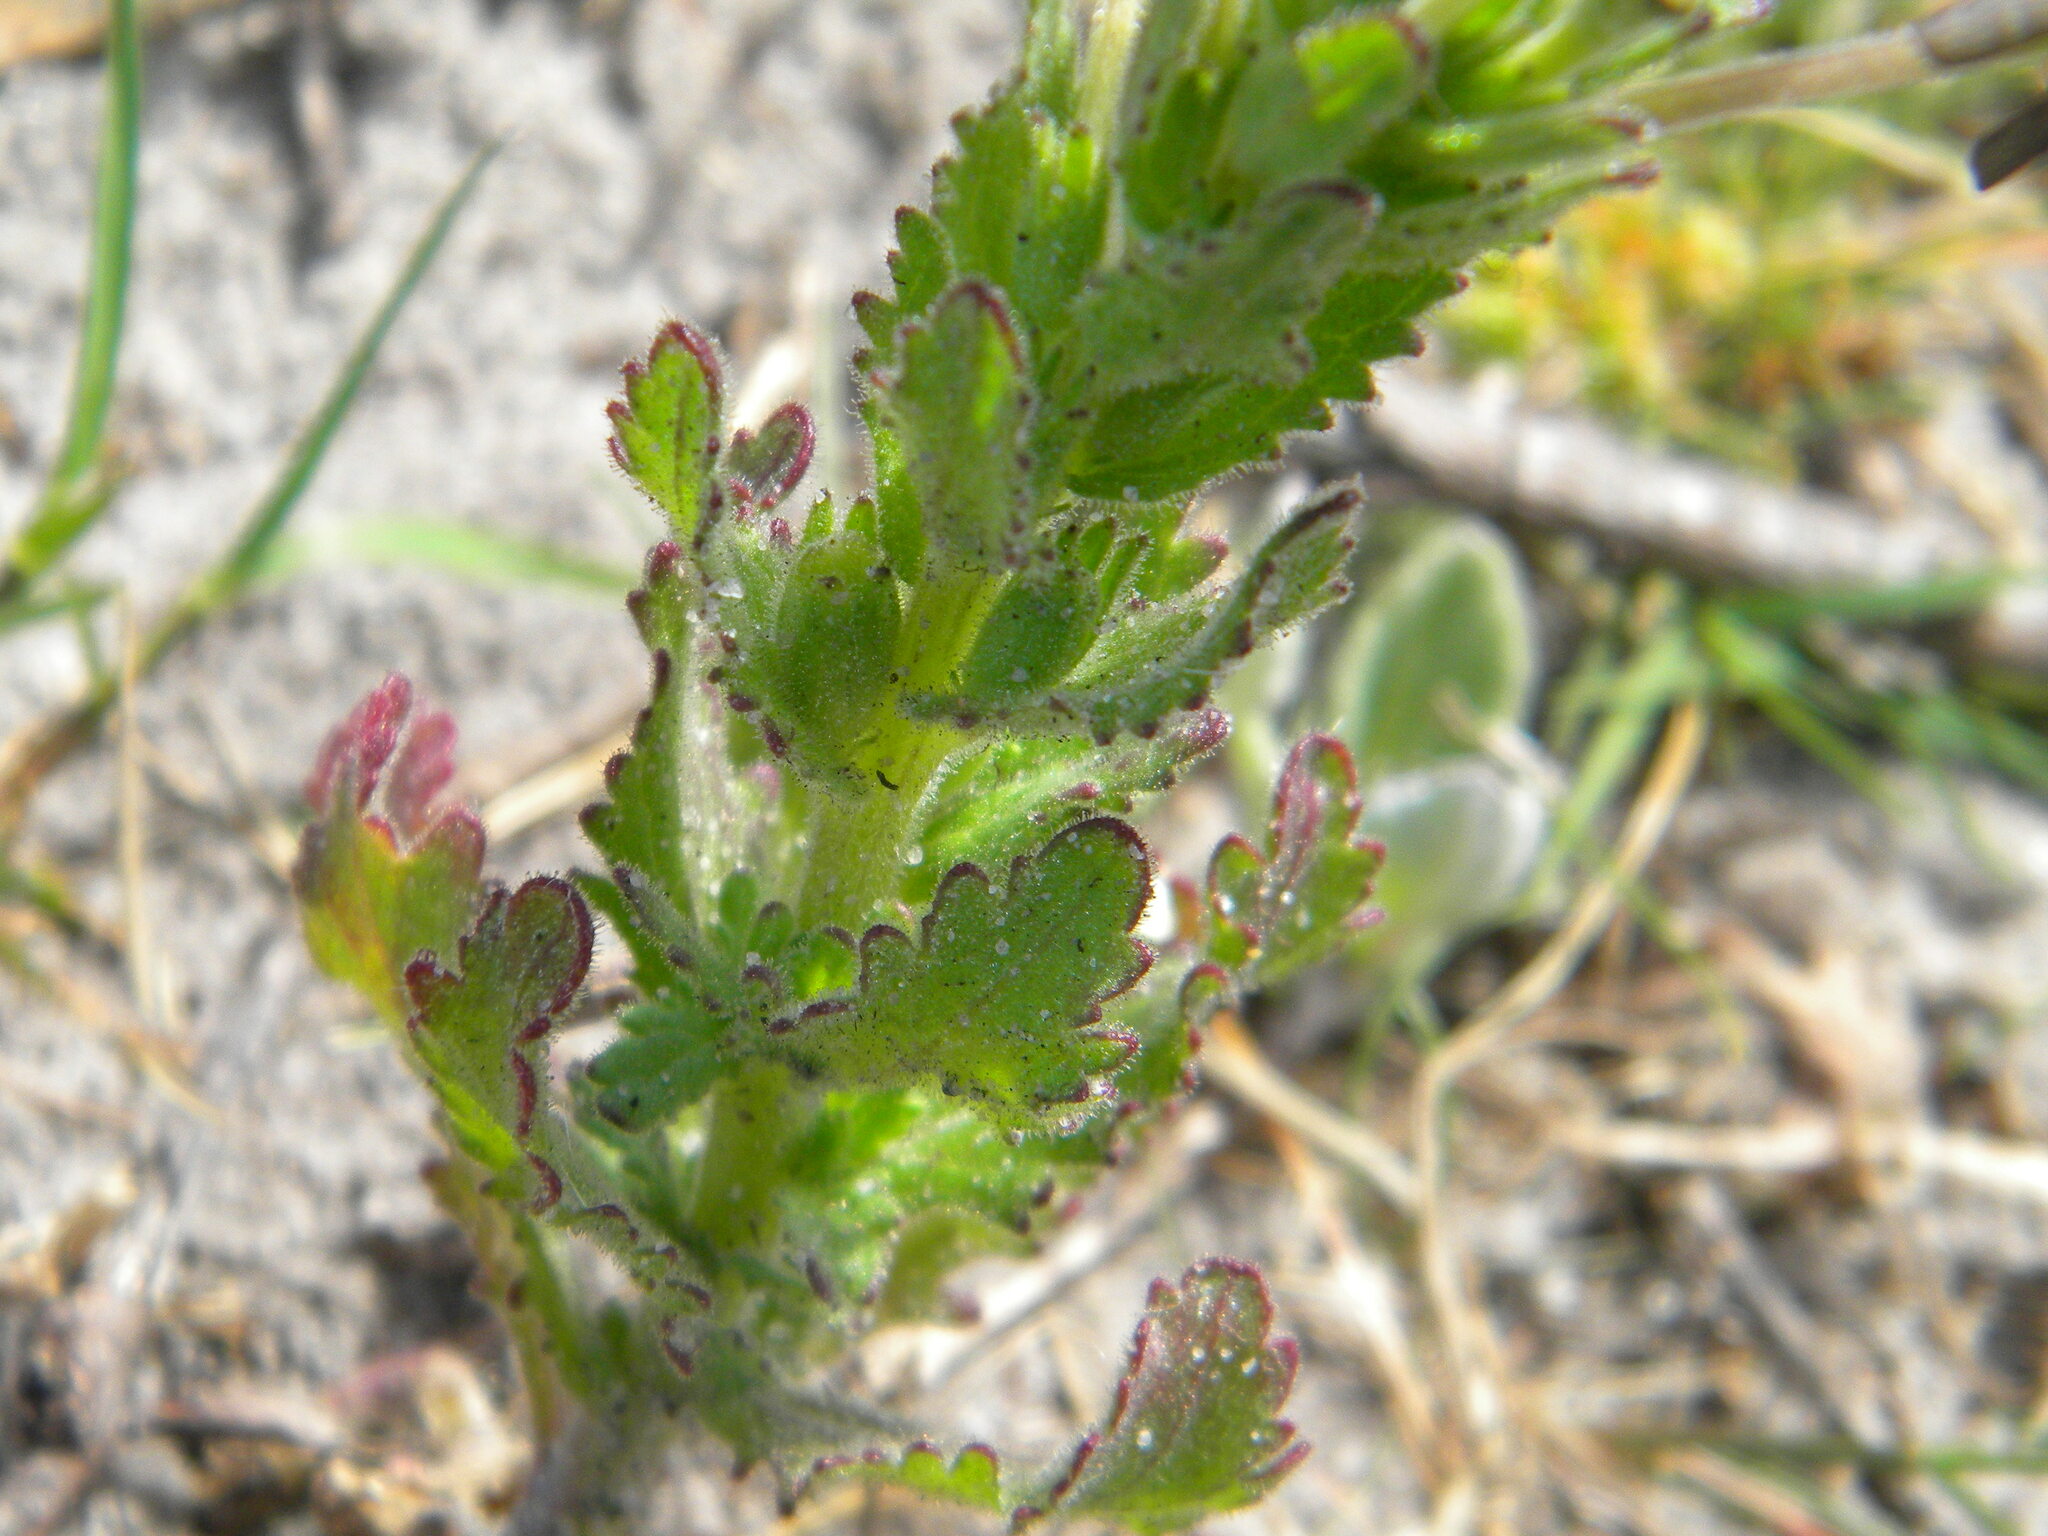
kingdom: Plantae
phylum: Tracheophyta
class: Magnoliopsida
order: Lamiales
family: Scrophulariaceae
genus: Lyperia
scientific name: Lyperia tristis
